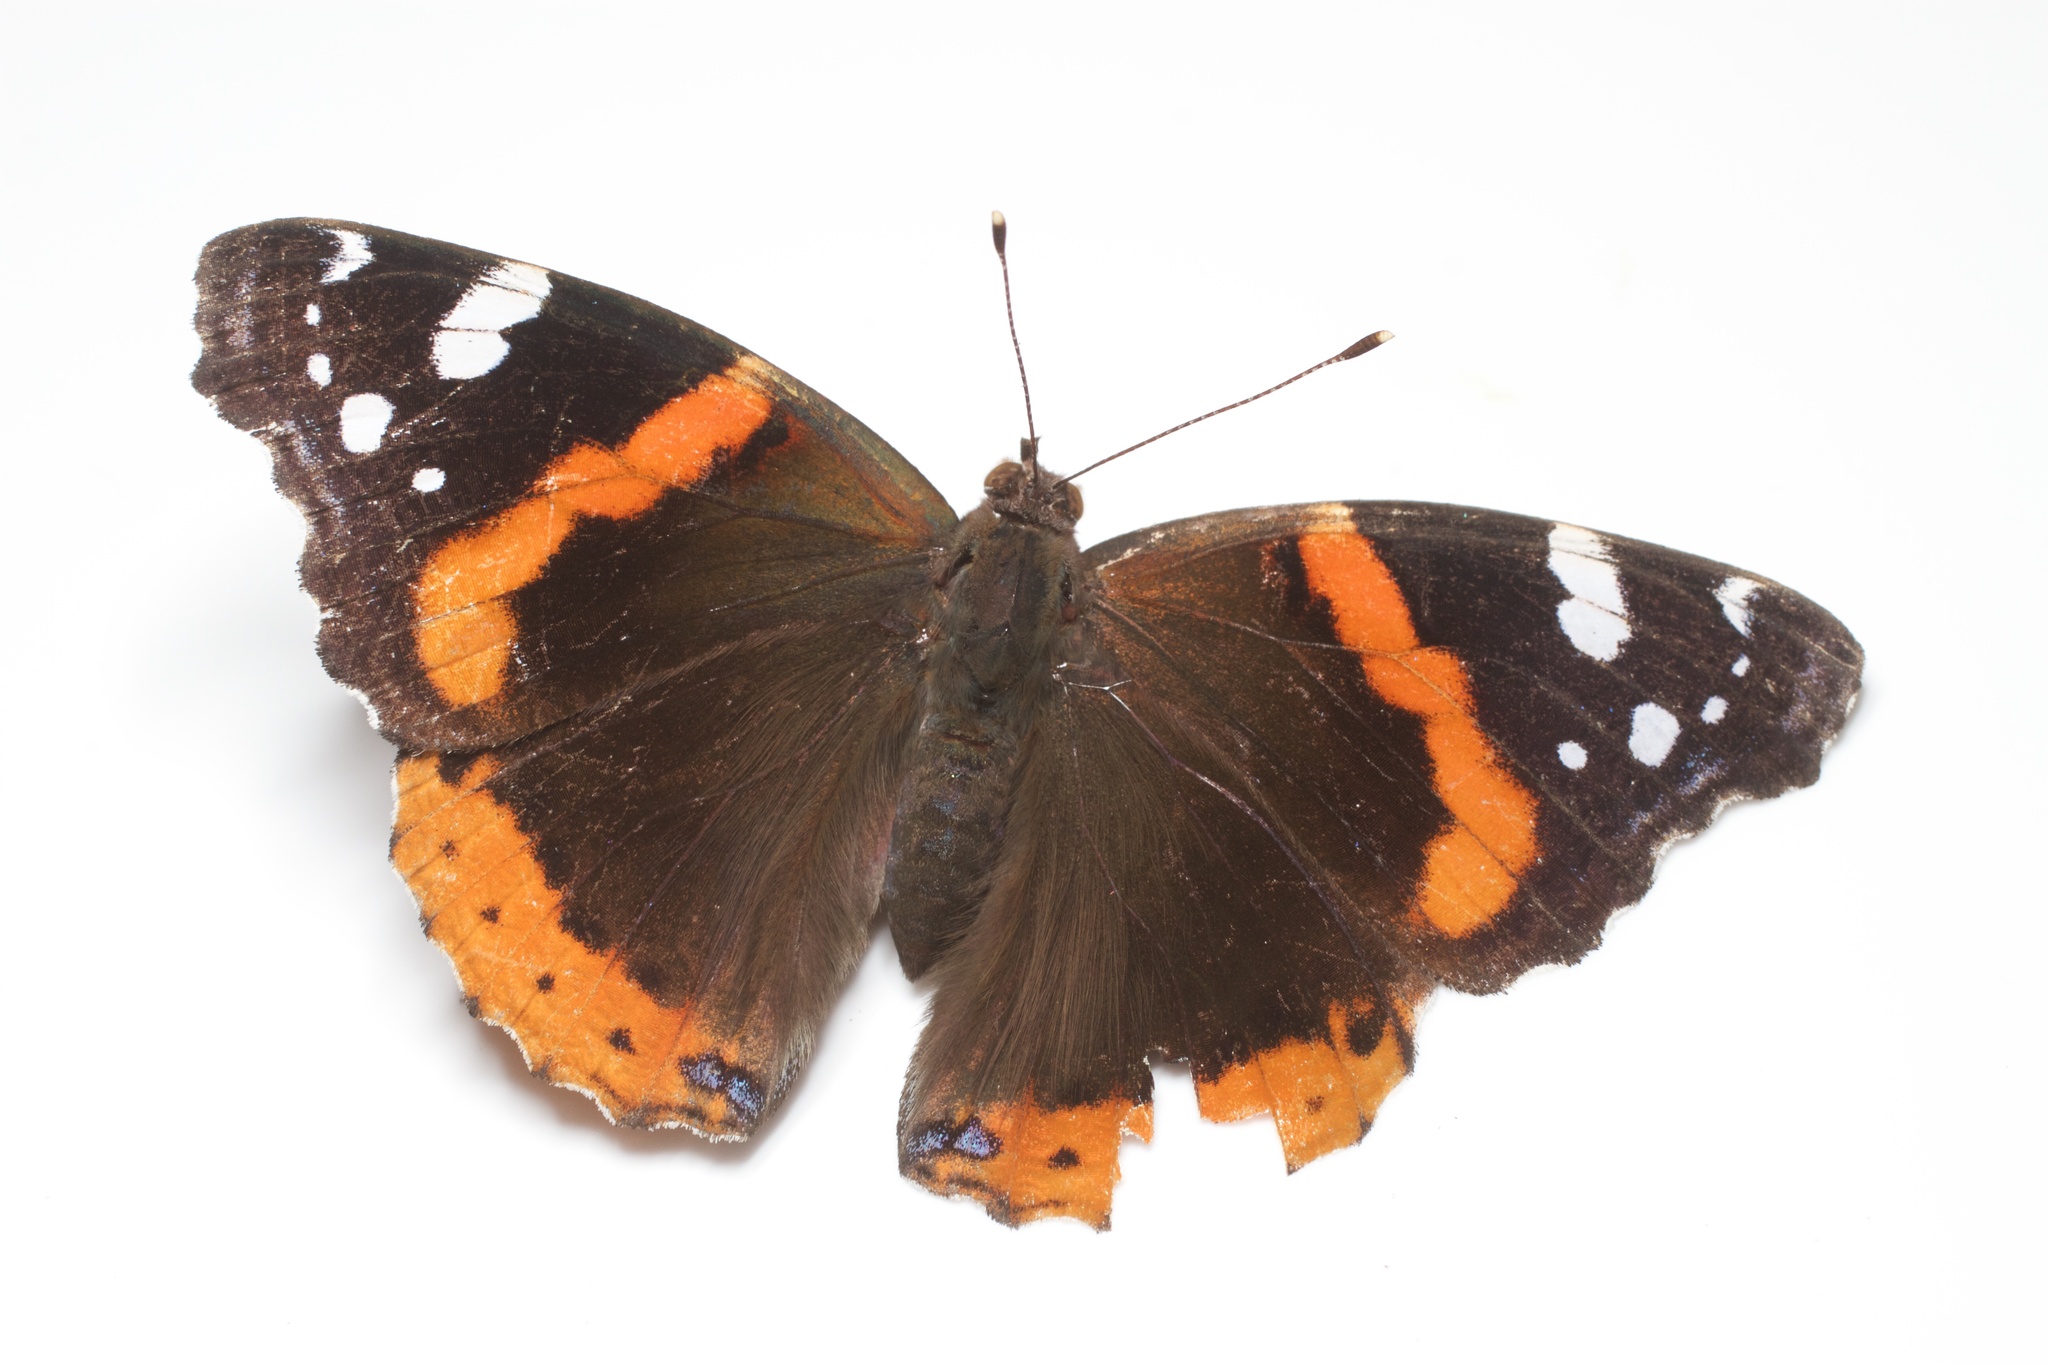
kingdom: Animalia
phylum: Arthropoda
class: Insecta
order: Lepidoptera
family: Nymphalidae
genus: Vanessa
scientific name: Vanessa atalanta
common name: Red admiral
